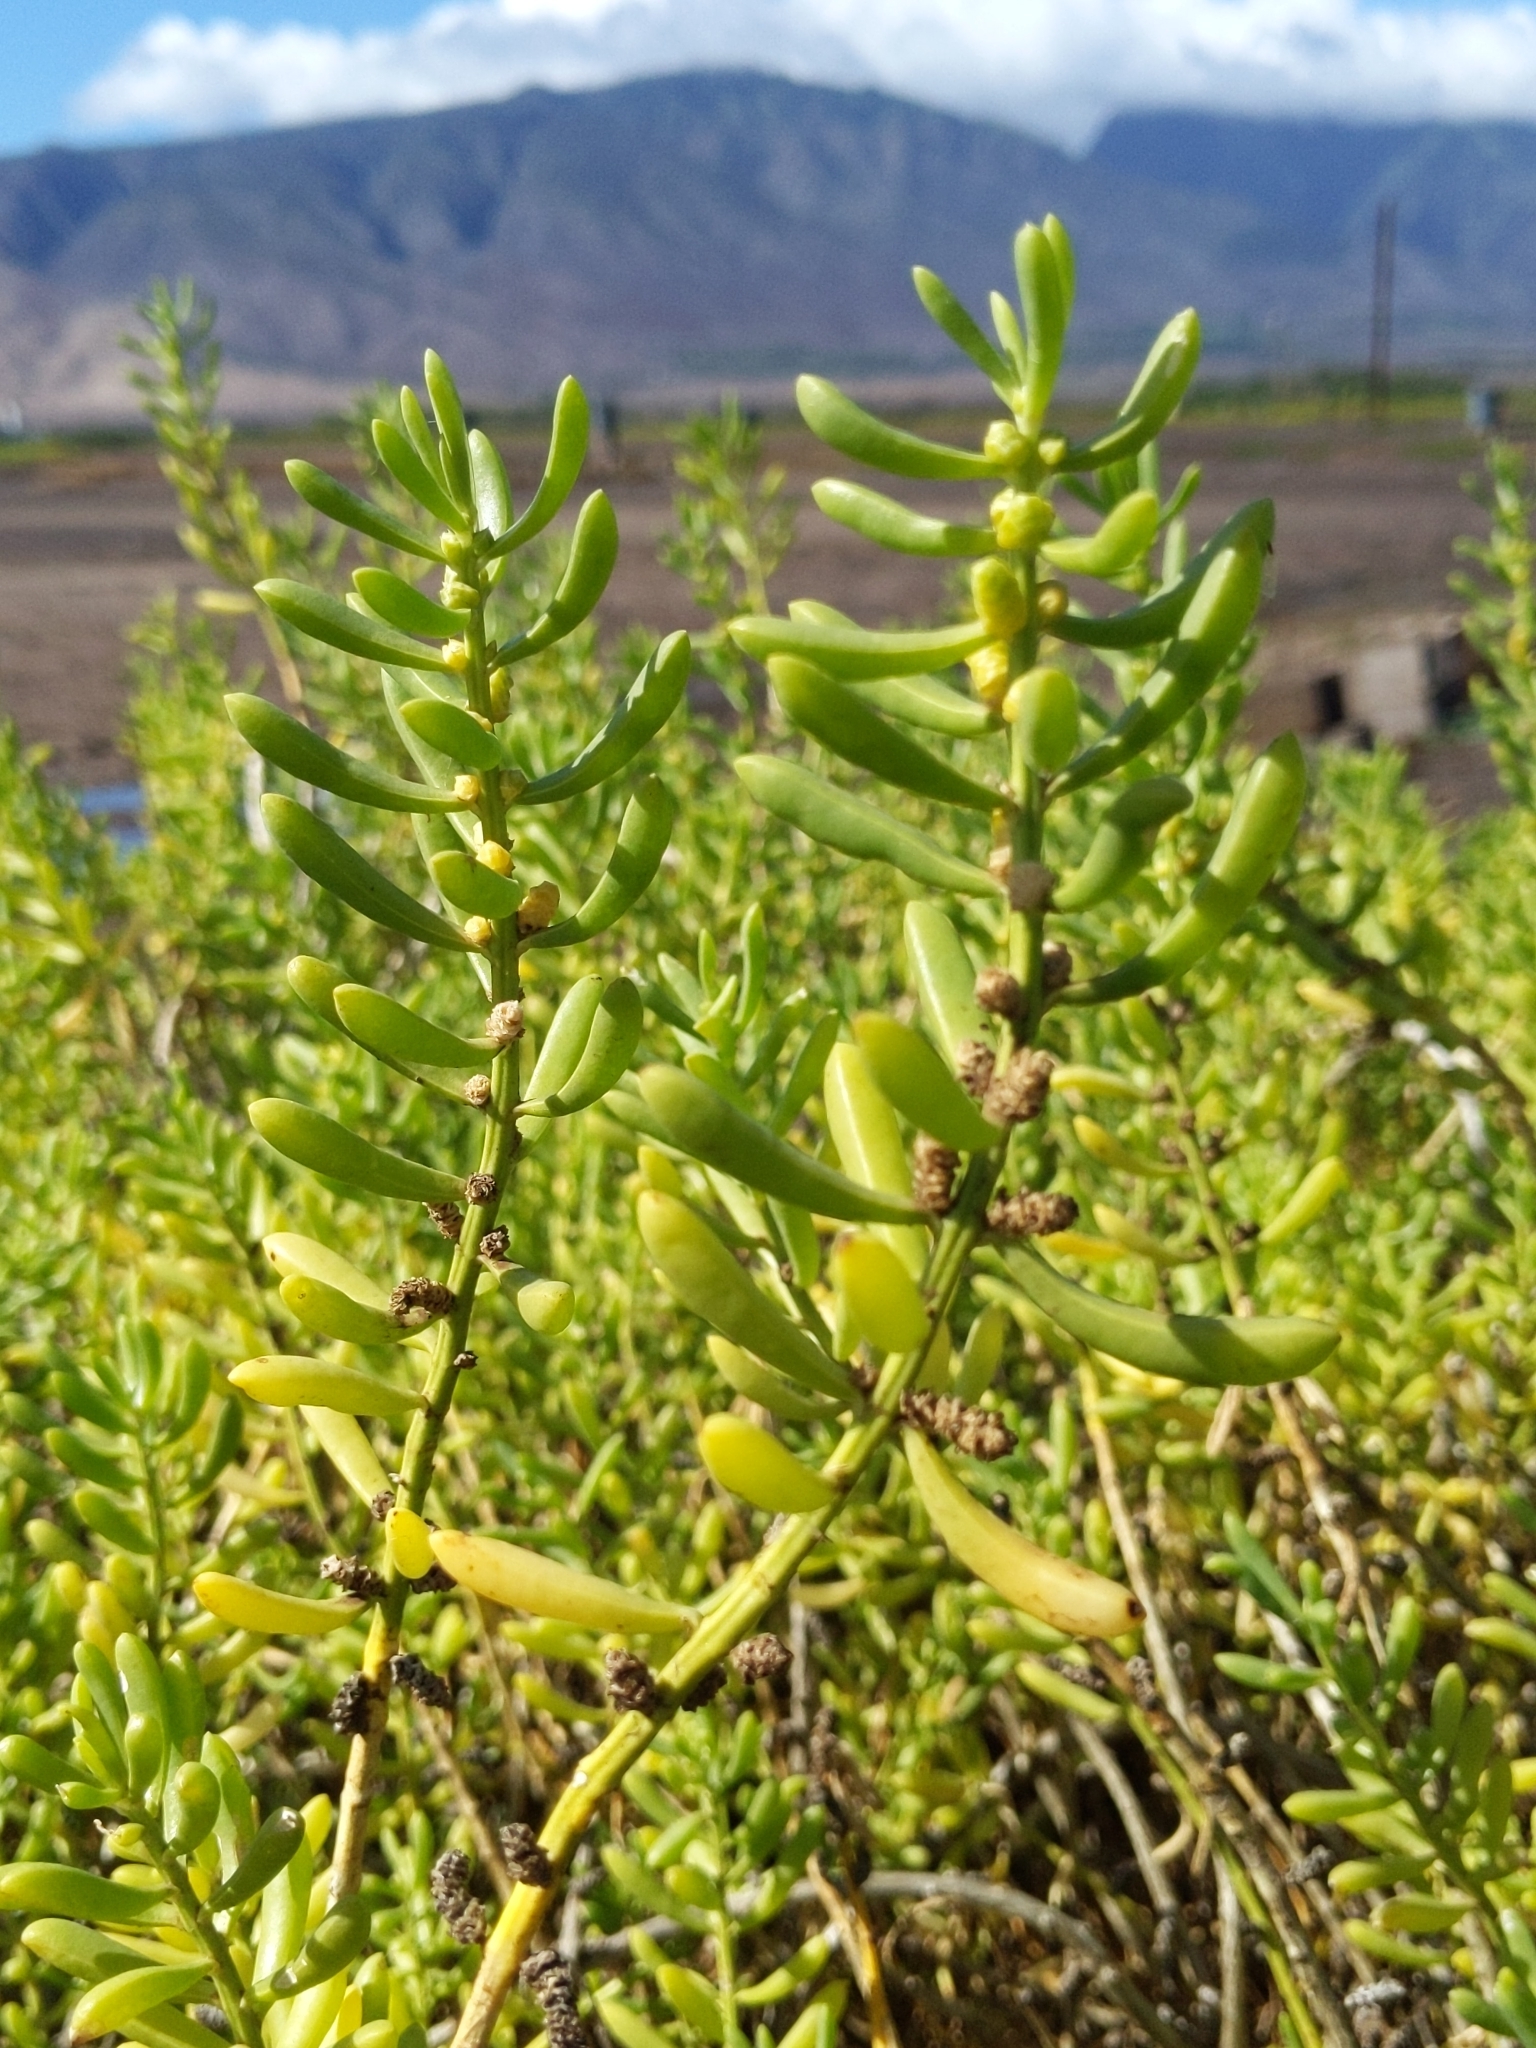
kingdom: Plantae
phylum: Tracheophyta
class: Magnoliopsida
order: Brassicales
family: Bataceae
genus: Batis
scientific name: Batis maritima
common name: Turtleweed
